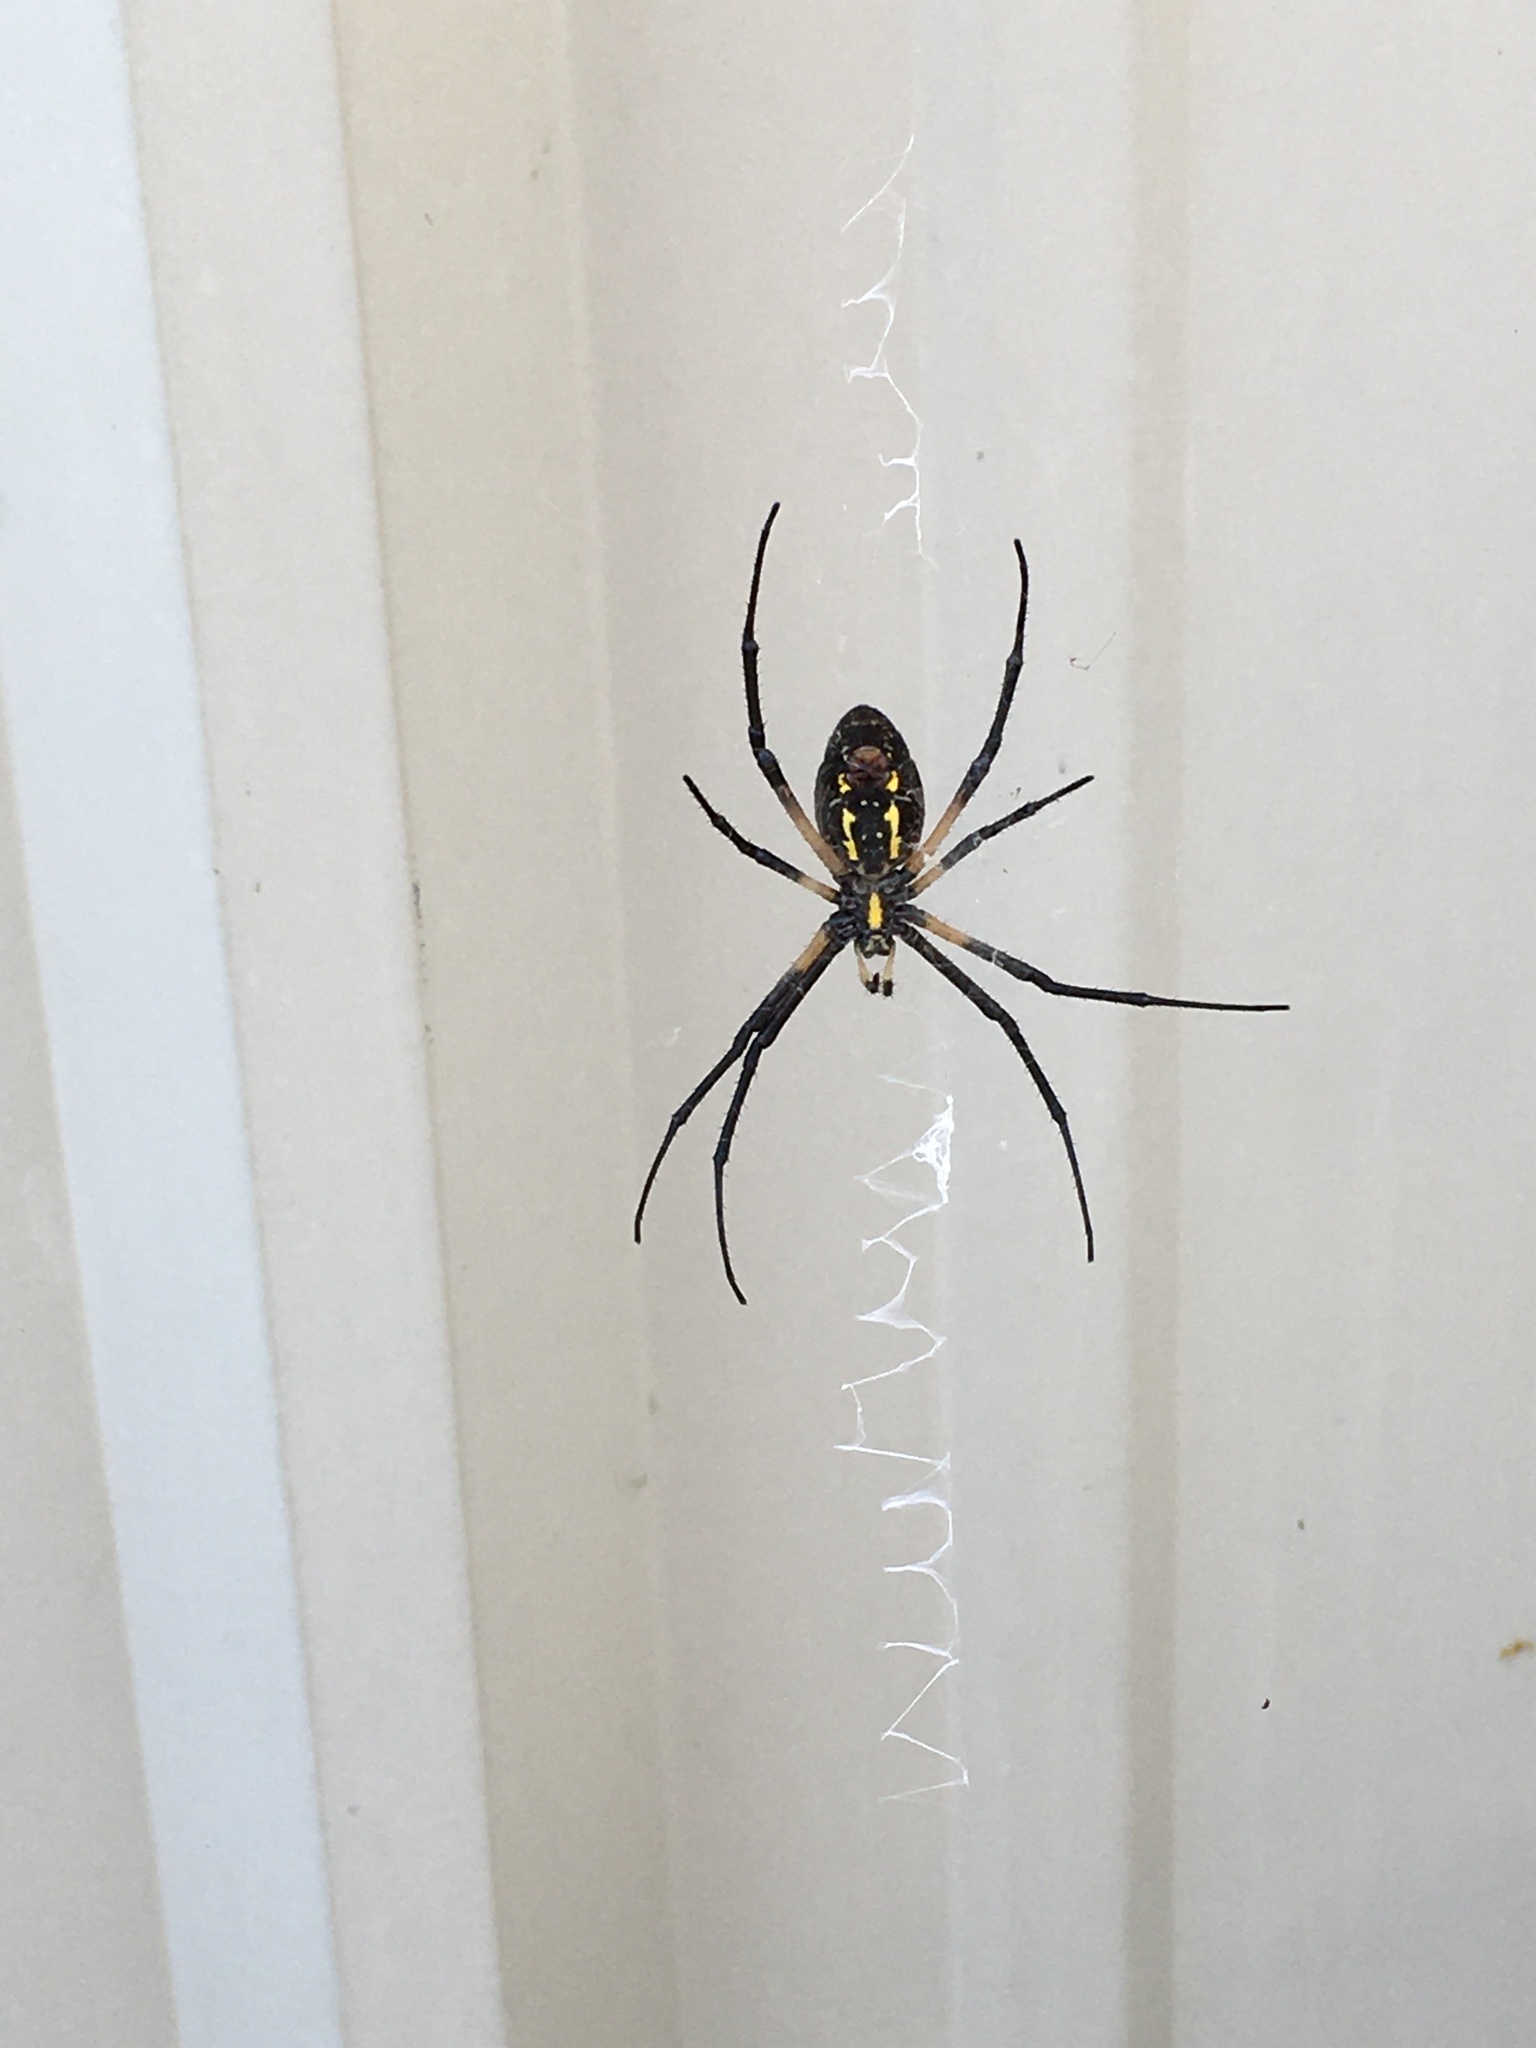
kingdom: Animalia
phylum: Arthropoda
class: Arachnida
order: Araneae
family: Araneidae
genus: Argiope
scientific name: Argiope aurantia
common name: Orb weavers
